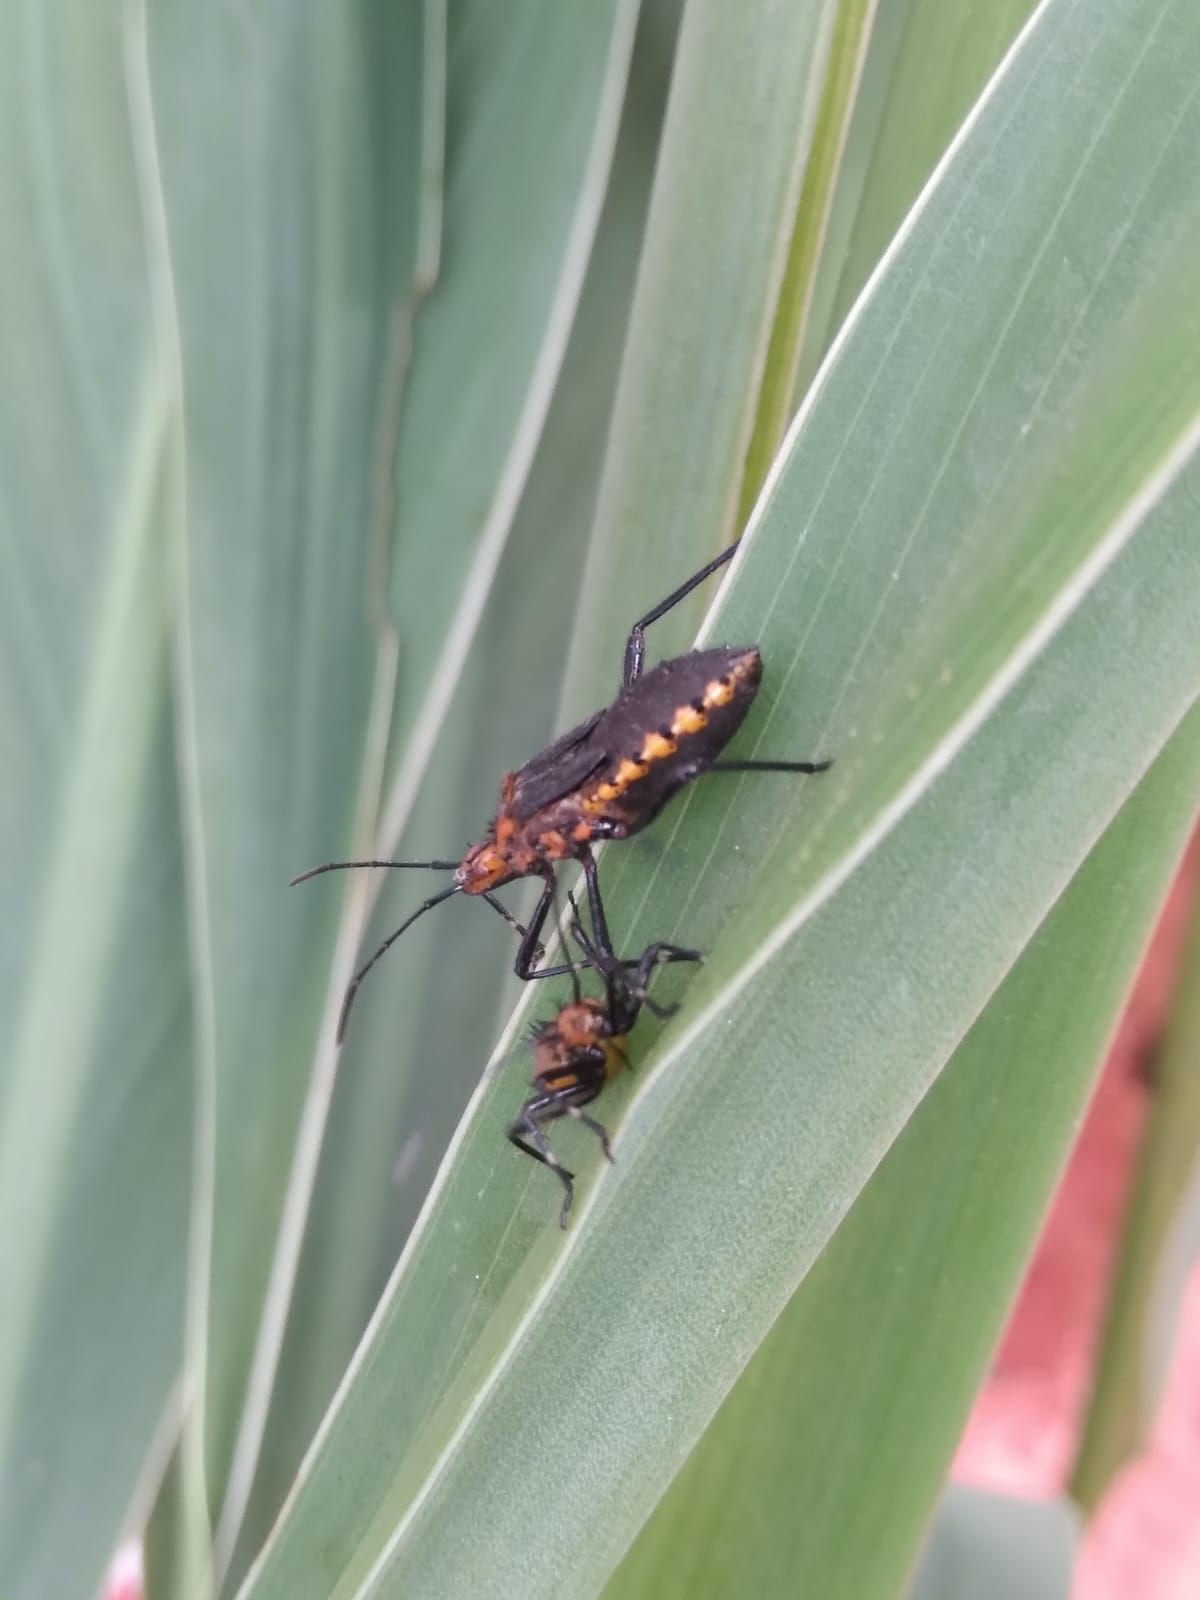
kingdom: Animalia
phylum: Arthropoda
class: Insecta
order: Hemiptera
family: Coreidae
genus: Phthiacnemia
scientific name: Phthiacnemia picta
